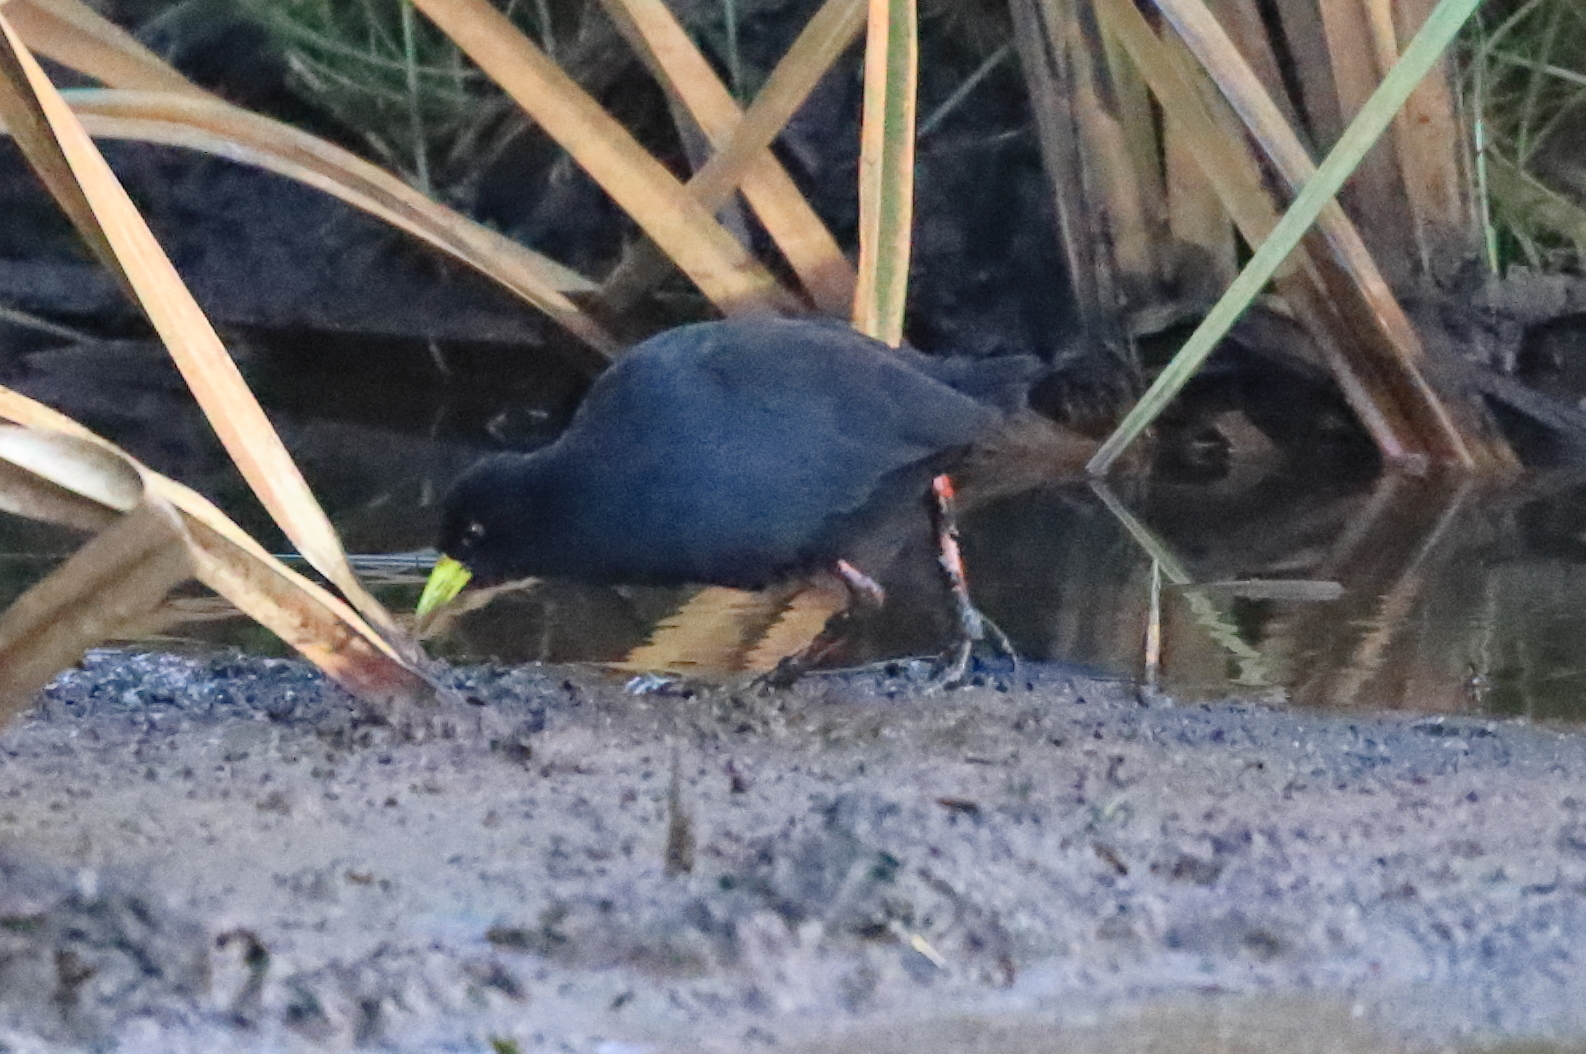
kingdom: Animalia
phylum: Chordata
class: Aves
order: Gruiformes
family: Rallidae
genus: Amaurornis
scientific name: Amaurornis flavirostra
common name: Black crake
